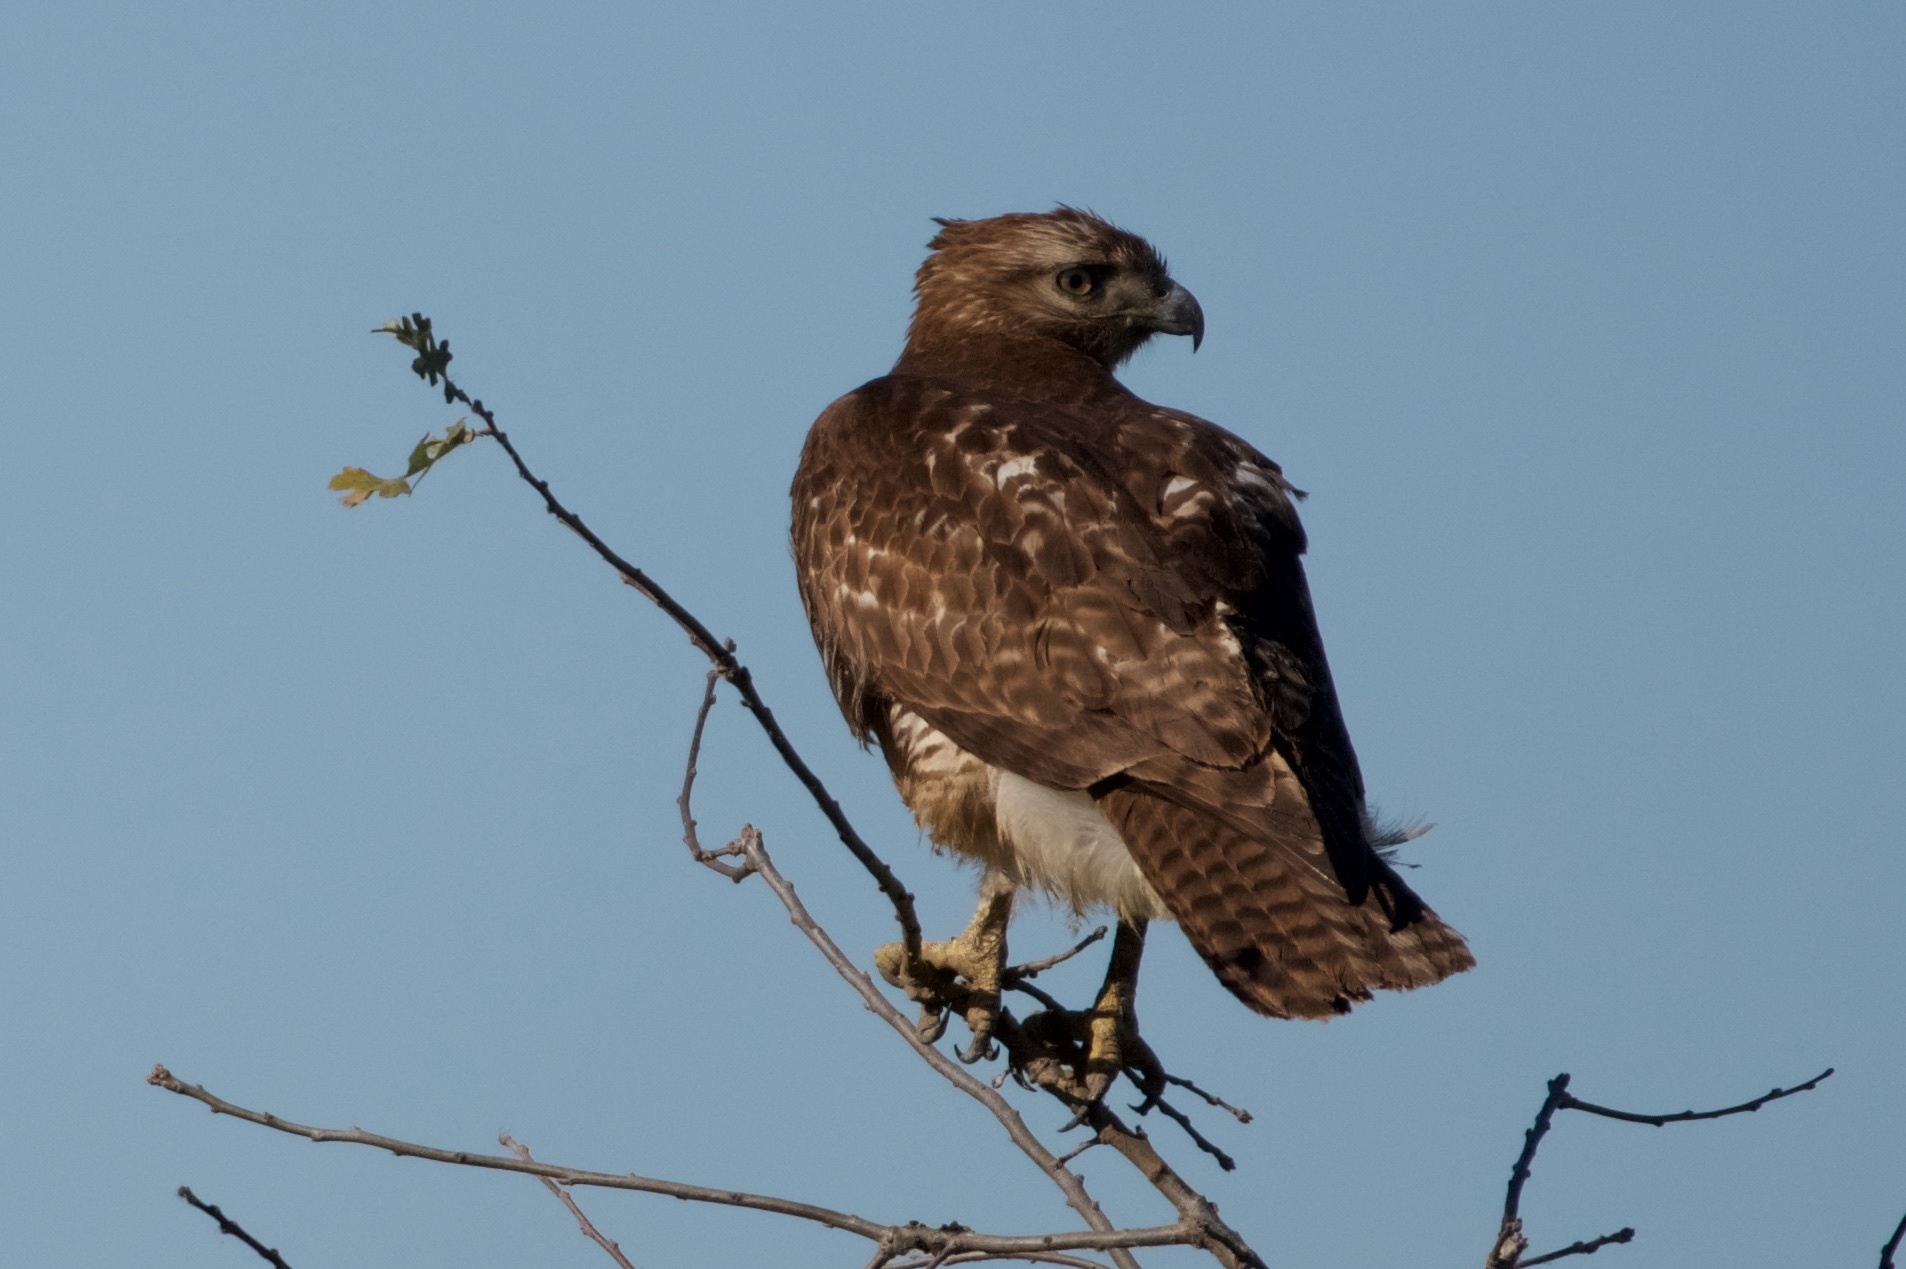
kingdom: Animalia
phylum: Chordata
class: Aves
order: Accipitriformes
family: Accipitridae
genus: Buteo
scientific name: Buteo jamaicensis
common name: Red-tailed hawk
